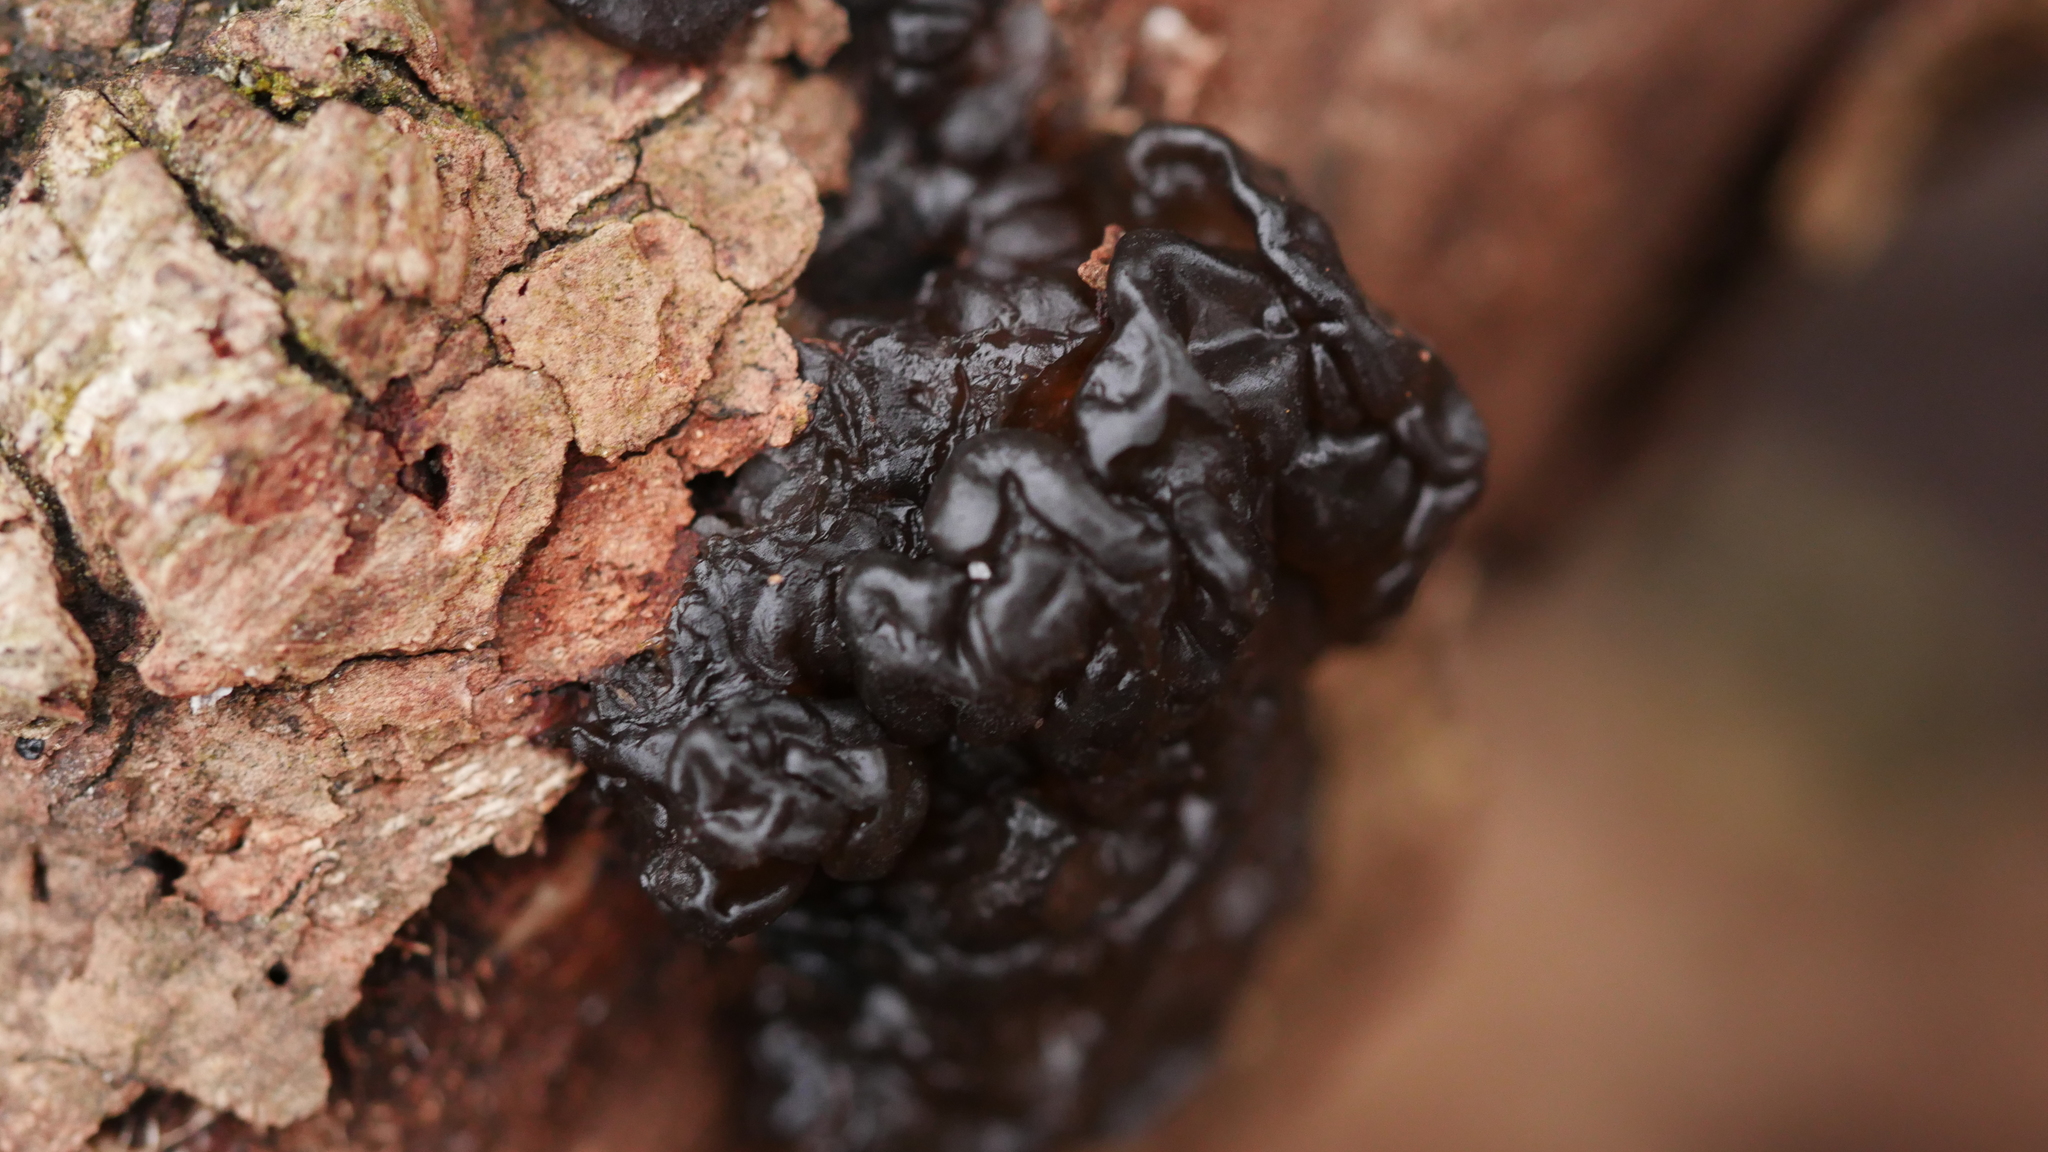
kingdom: Fungi
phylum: Basidiomycota
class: Agaricomycetes
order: Auriculariales
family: Auriculariaceae
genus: Exidia
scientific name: Exidia glandulosa
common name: Witches' butter
